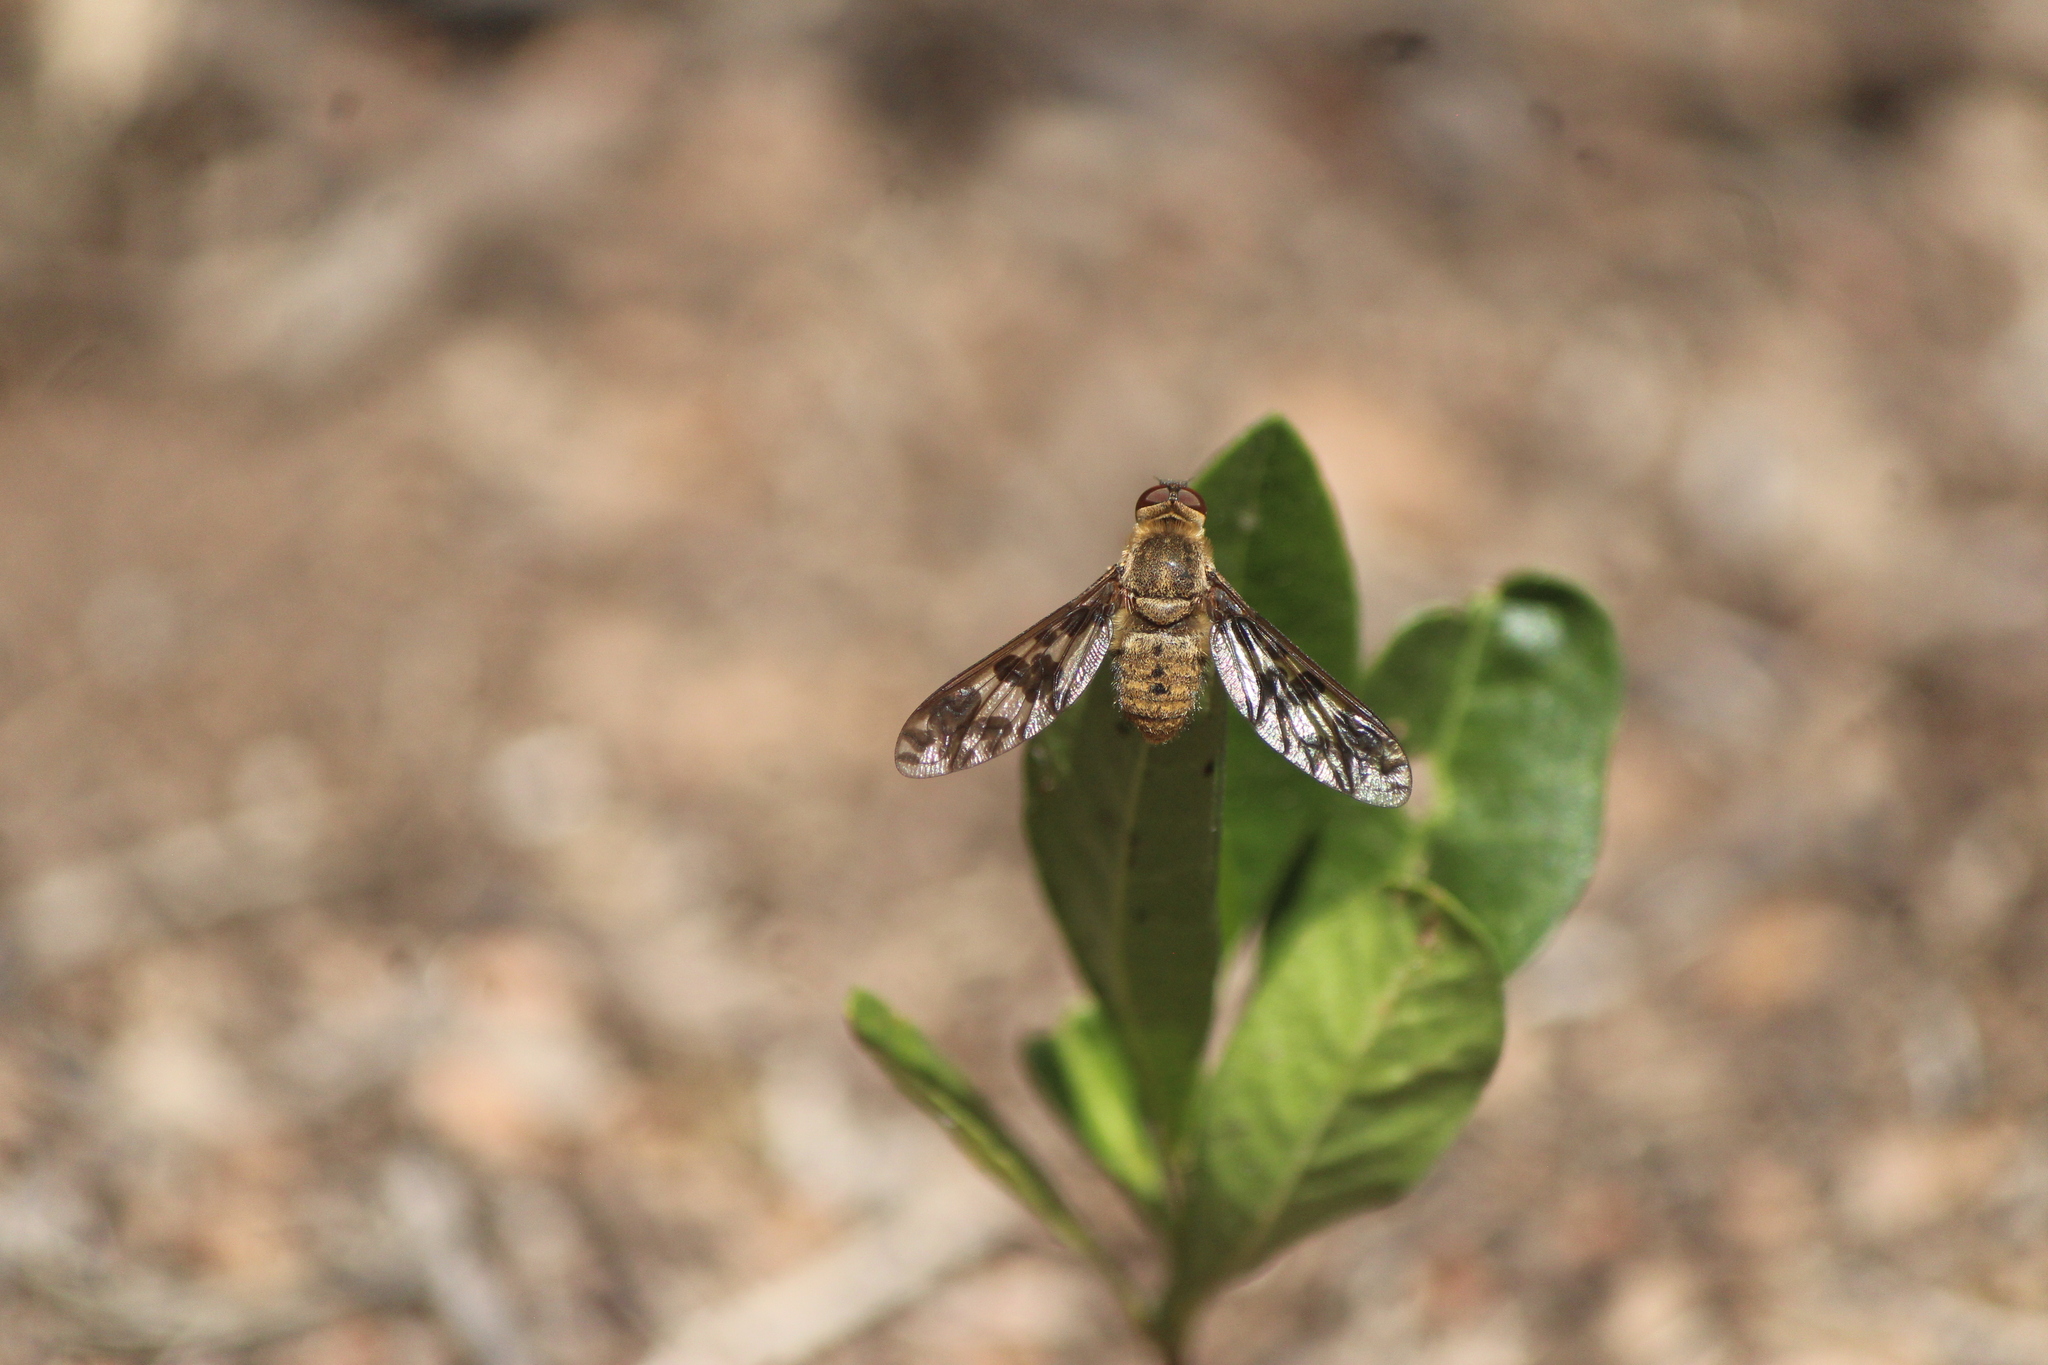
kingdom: Animalia
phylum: Arthropoda
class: Insecta
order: Diptera
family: Bombyliidae
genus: Dipalta
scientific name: Dipalta serpentina
